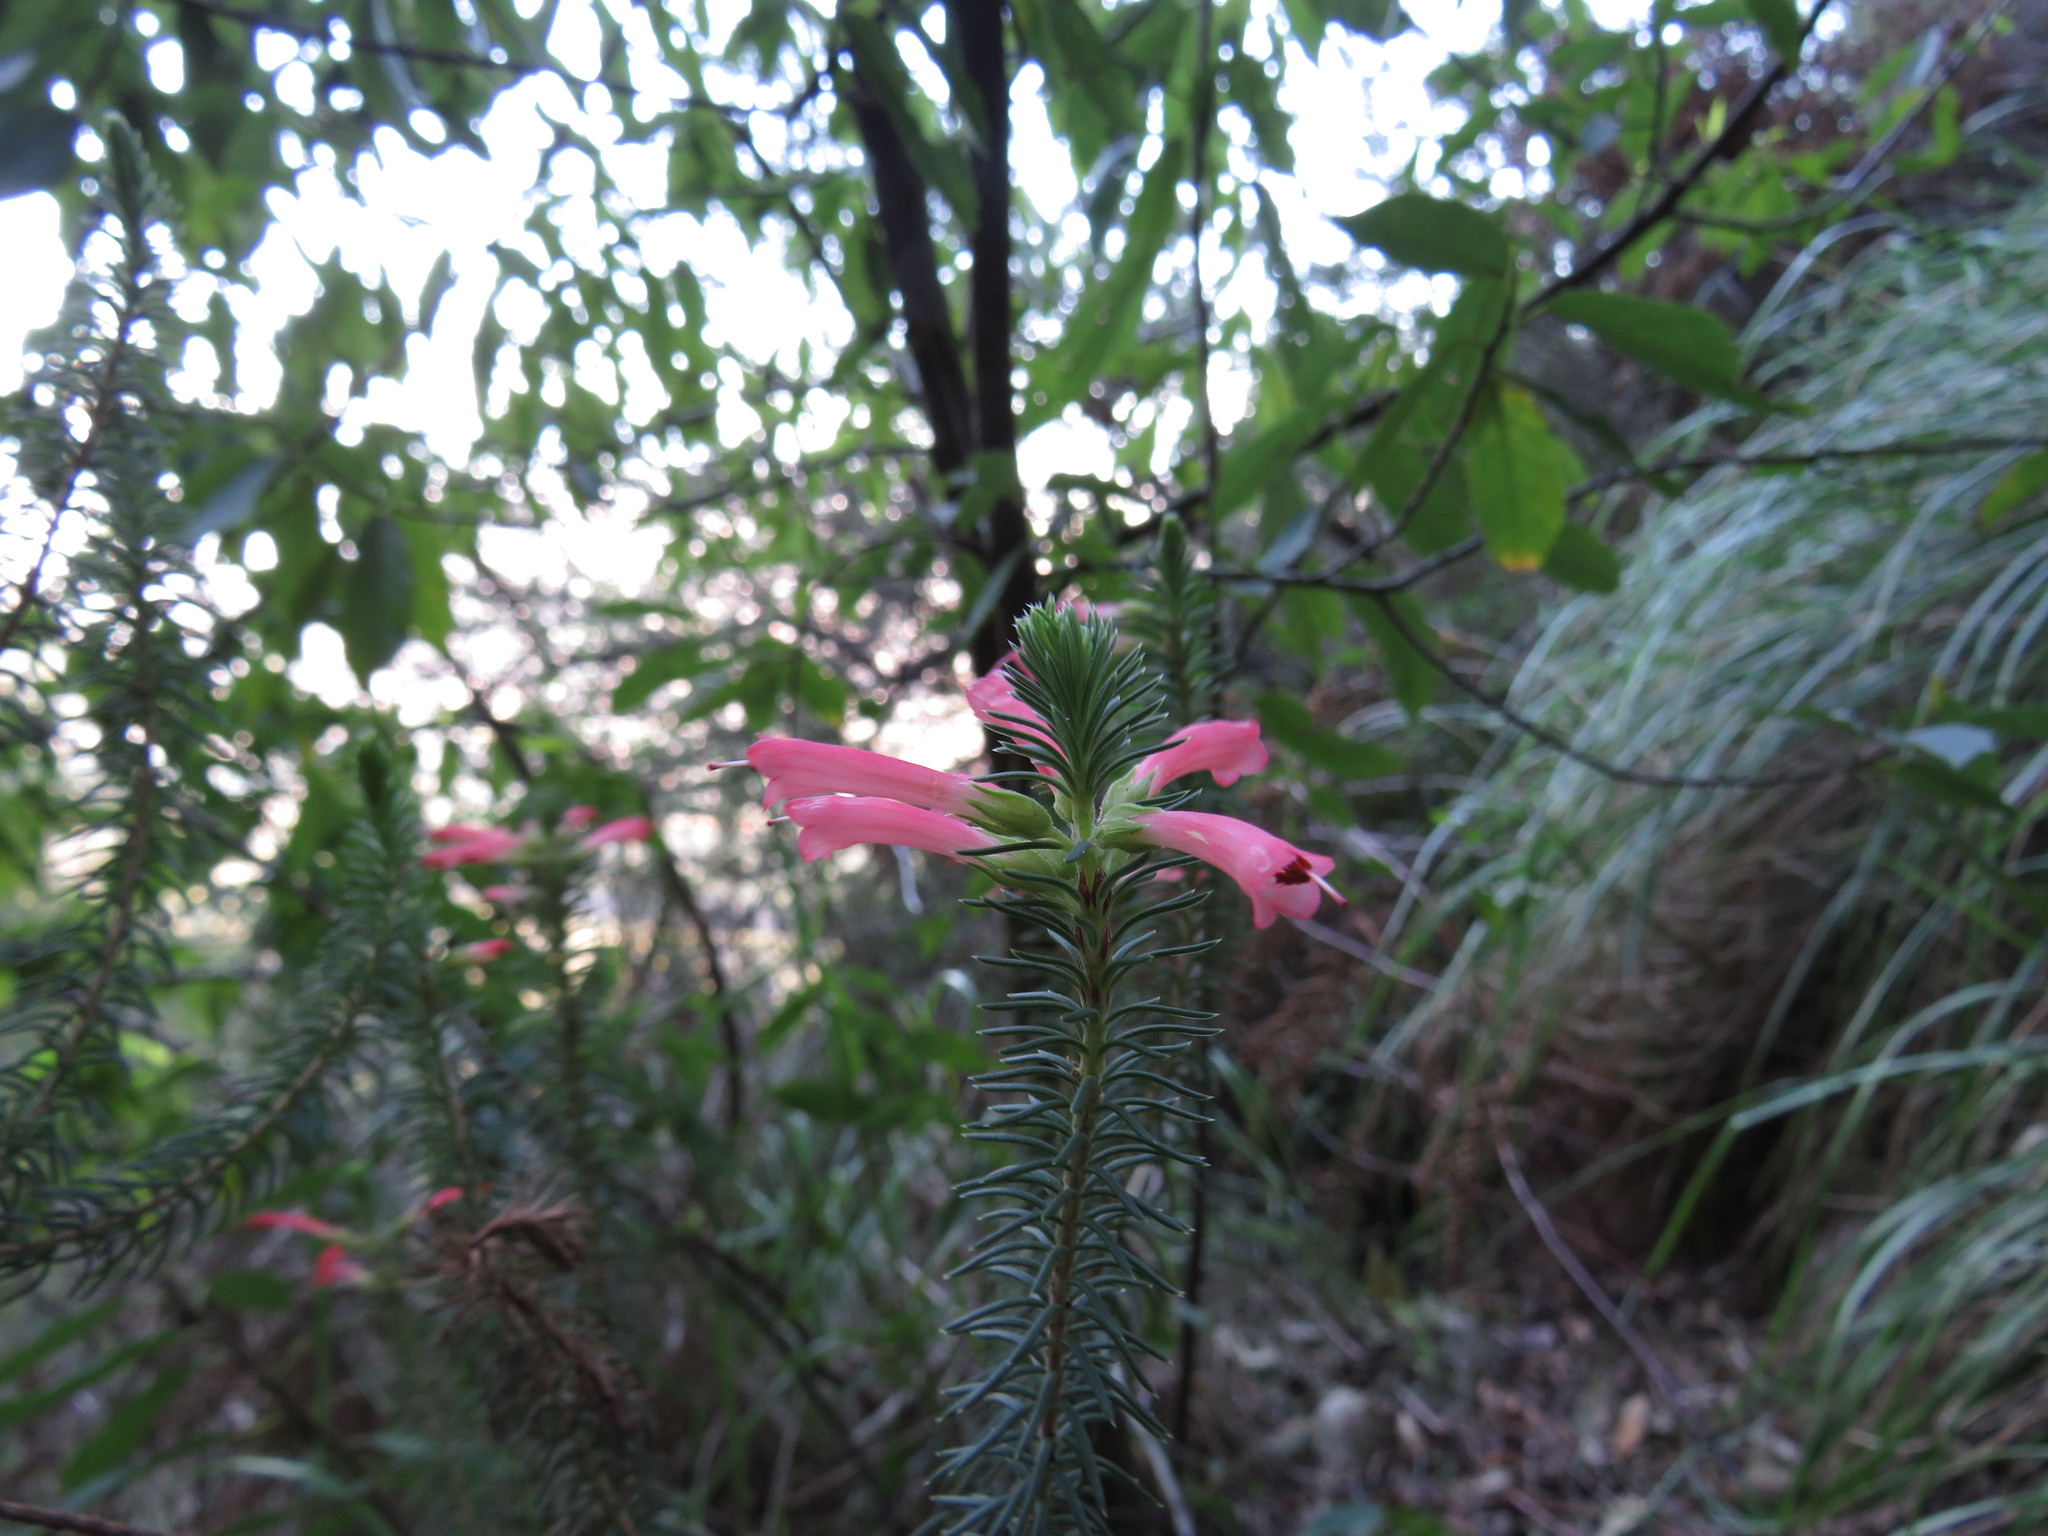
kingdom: Plantae
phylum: Tracheophyta
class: Magnoliopsida
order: Ericales
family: Ericaceae
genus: Erica
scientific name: Erica abietina
